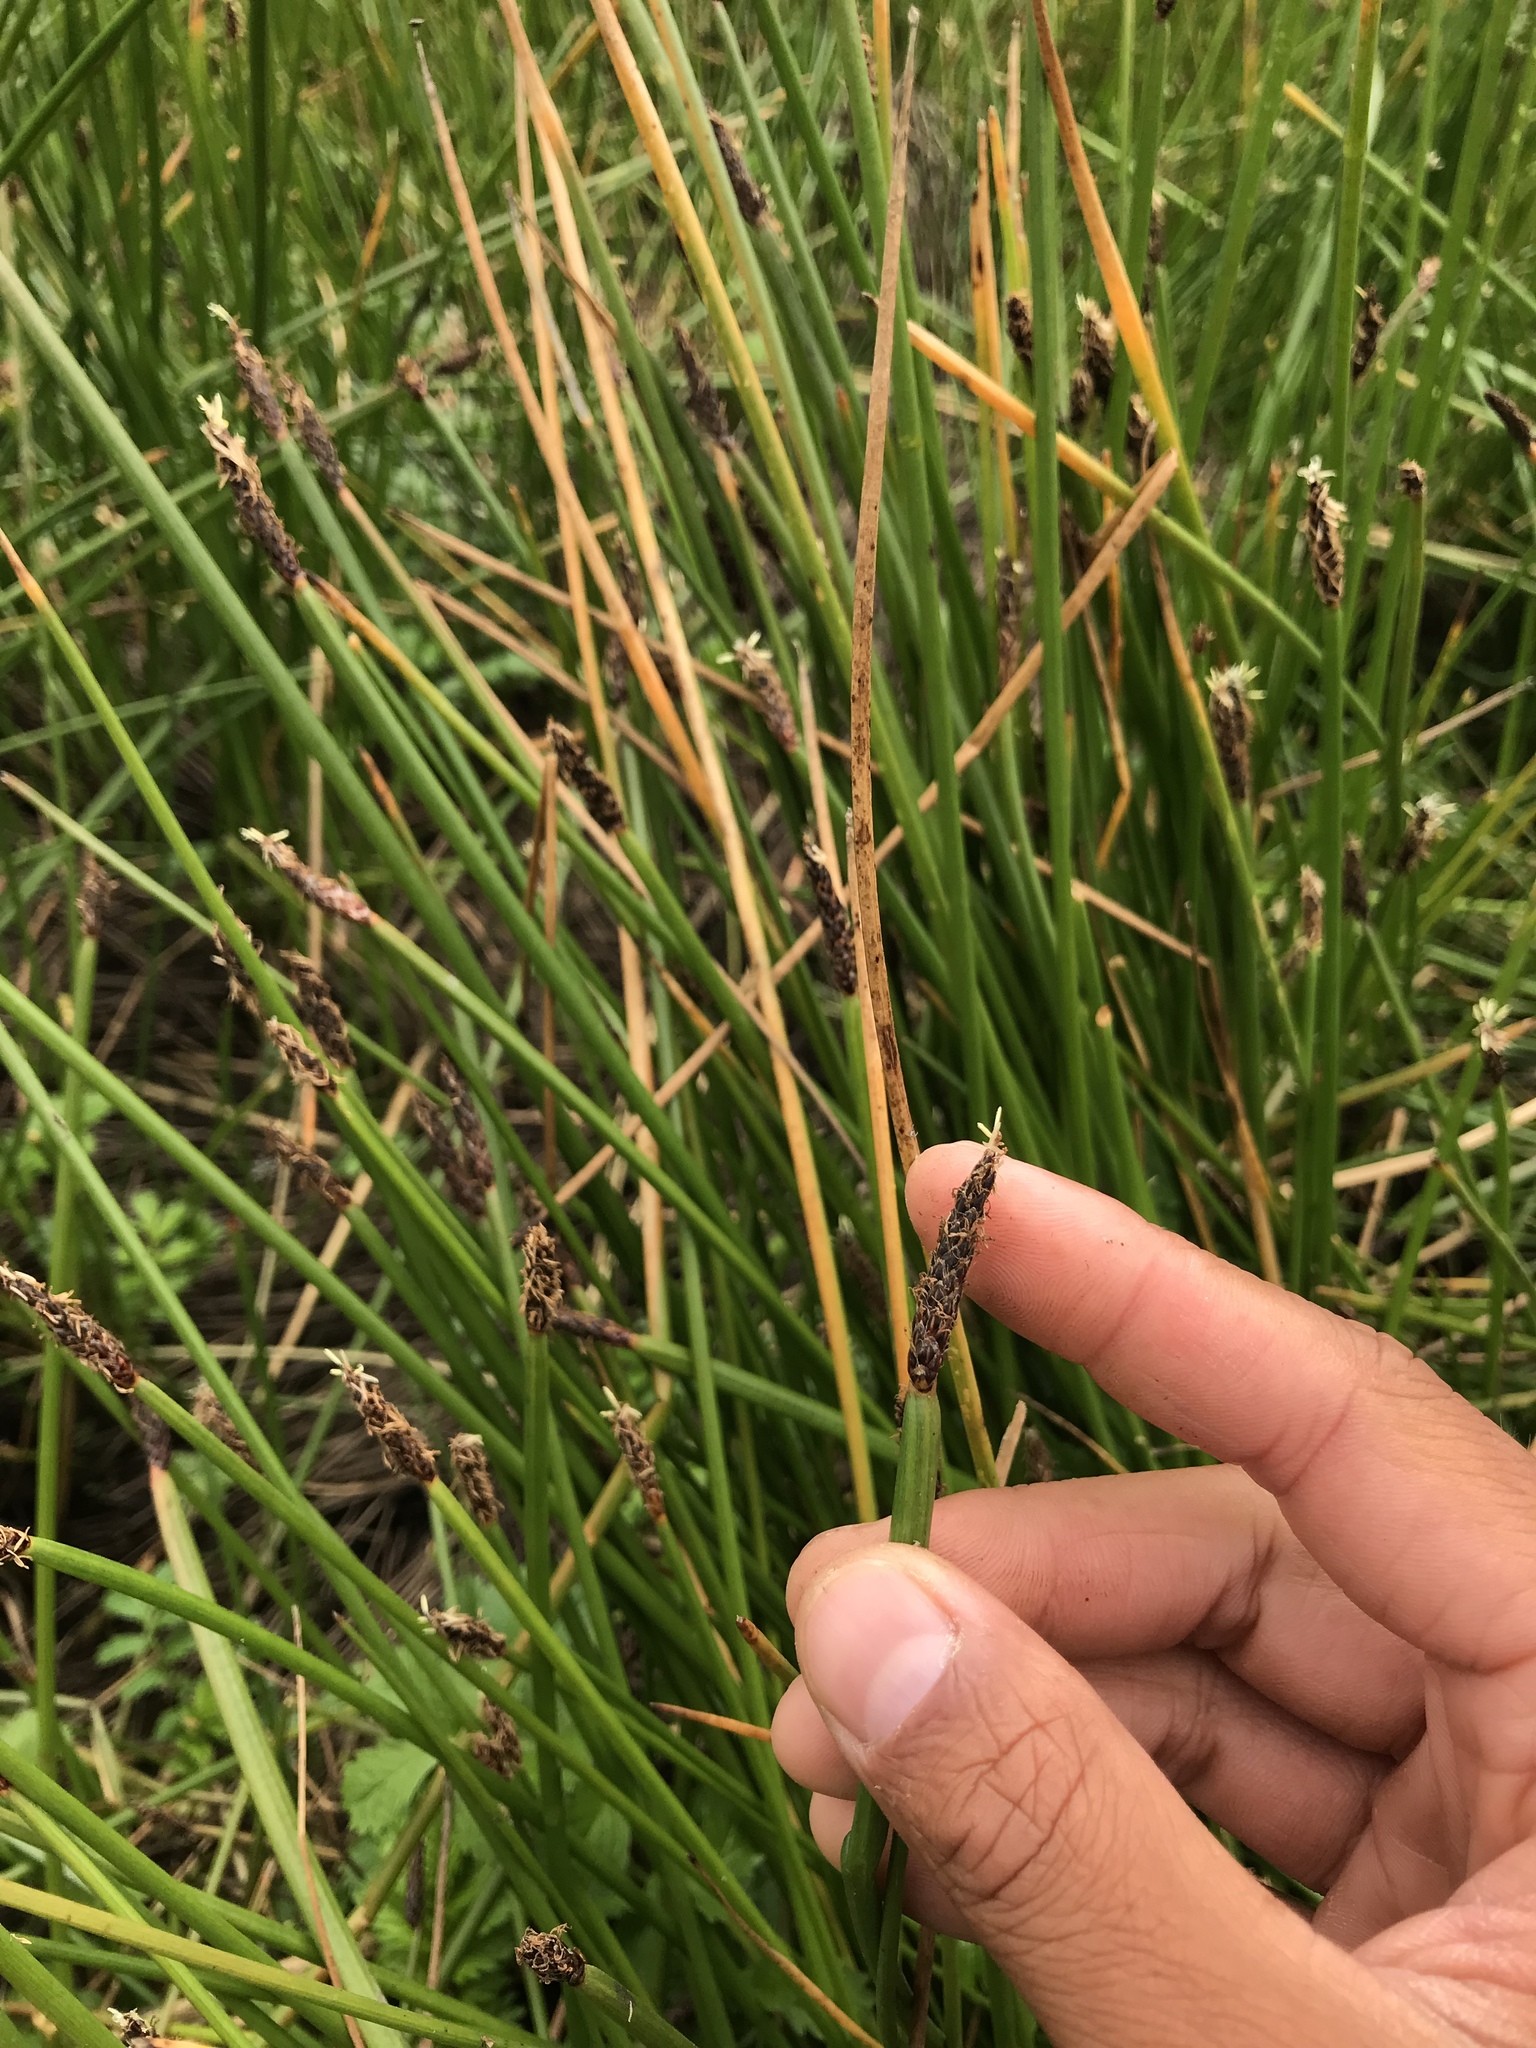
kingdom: Plantae
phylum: Tracheophyta
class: Liliopsida
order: Poales
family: Cyperaceae
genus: Eleocharis
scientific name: Eleocharis macrostachya
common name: Pale spikerush
